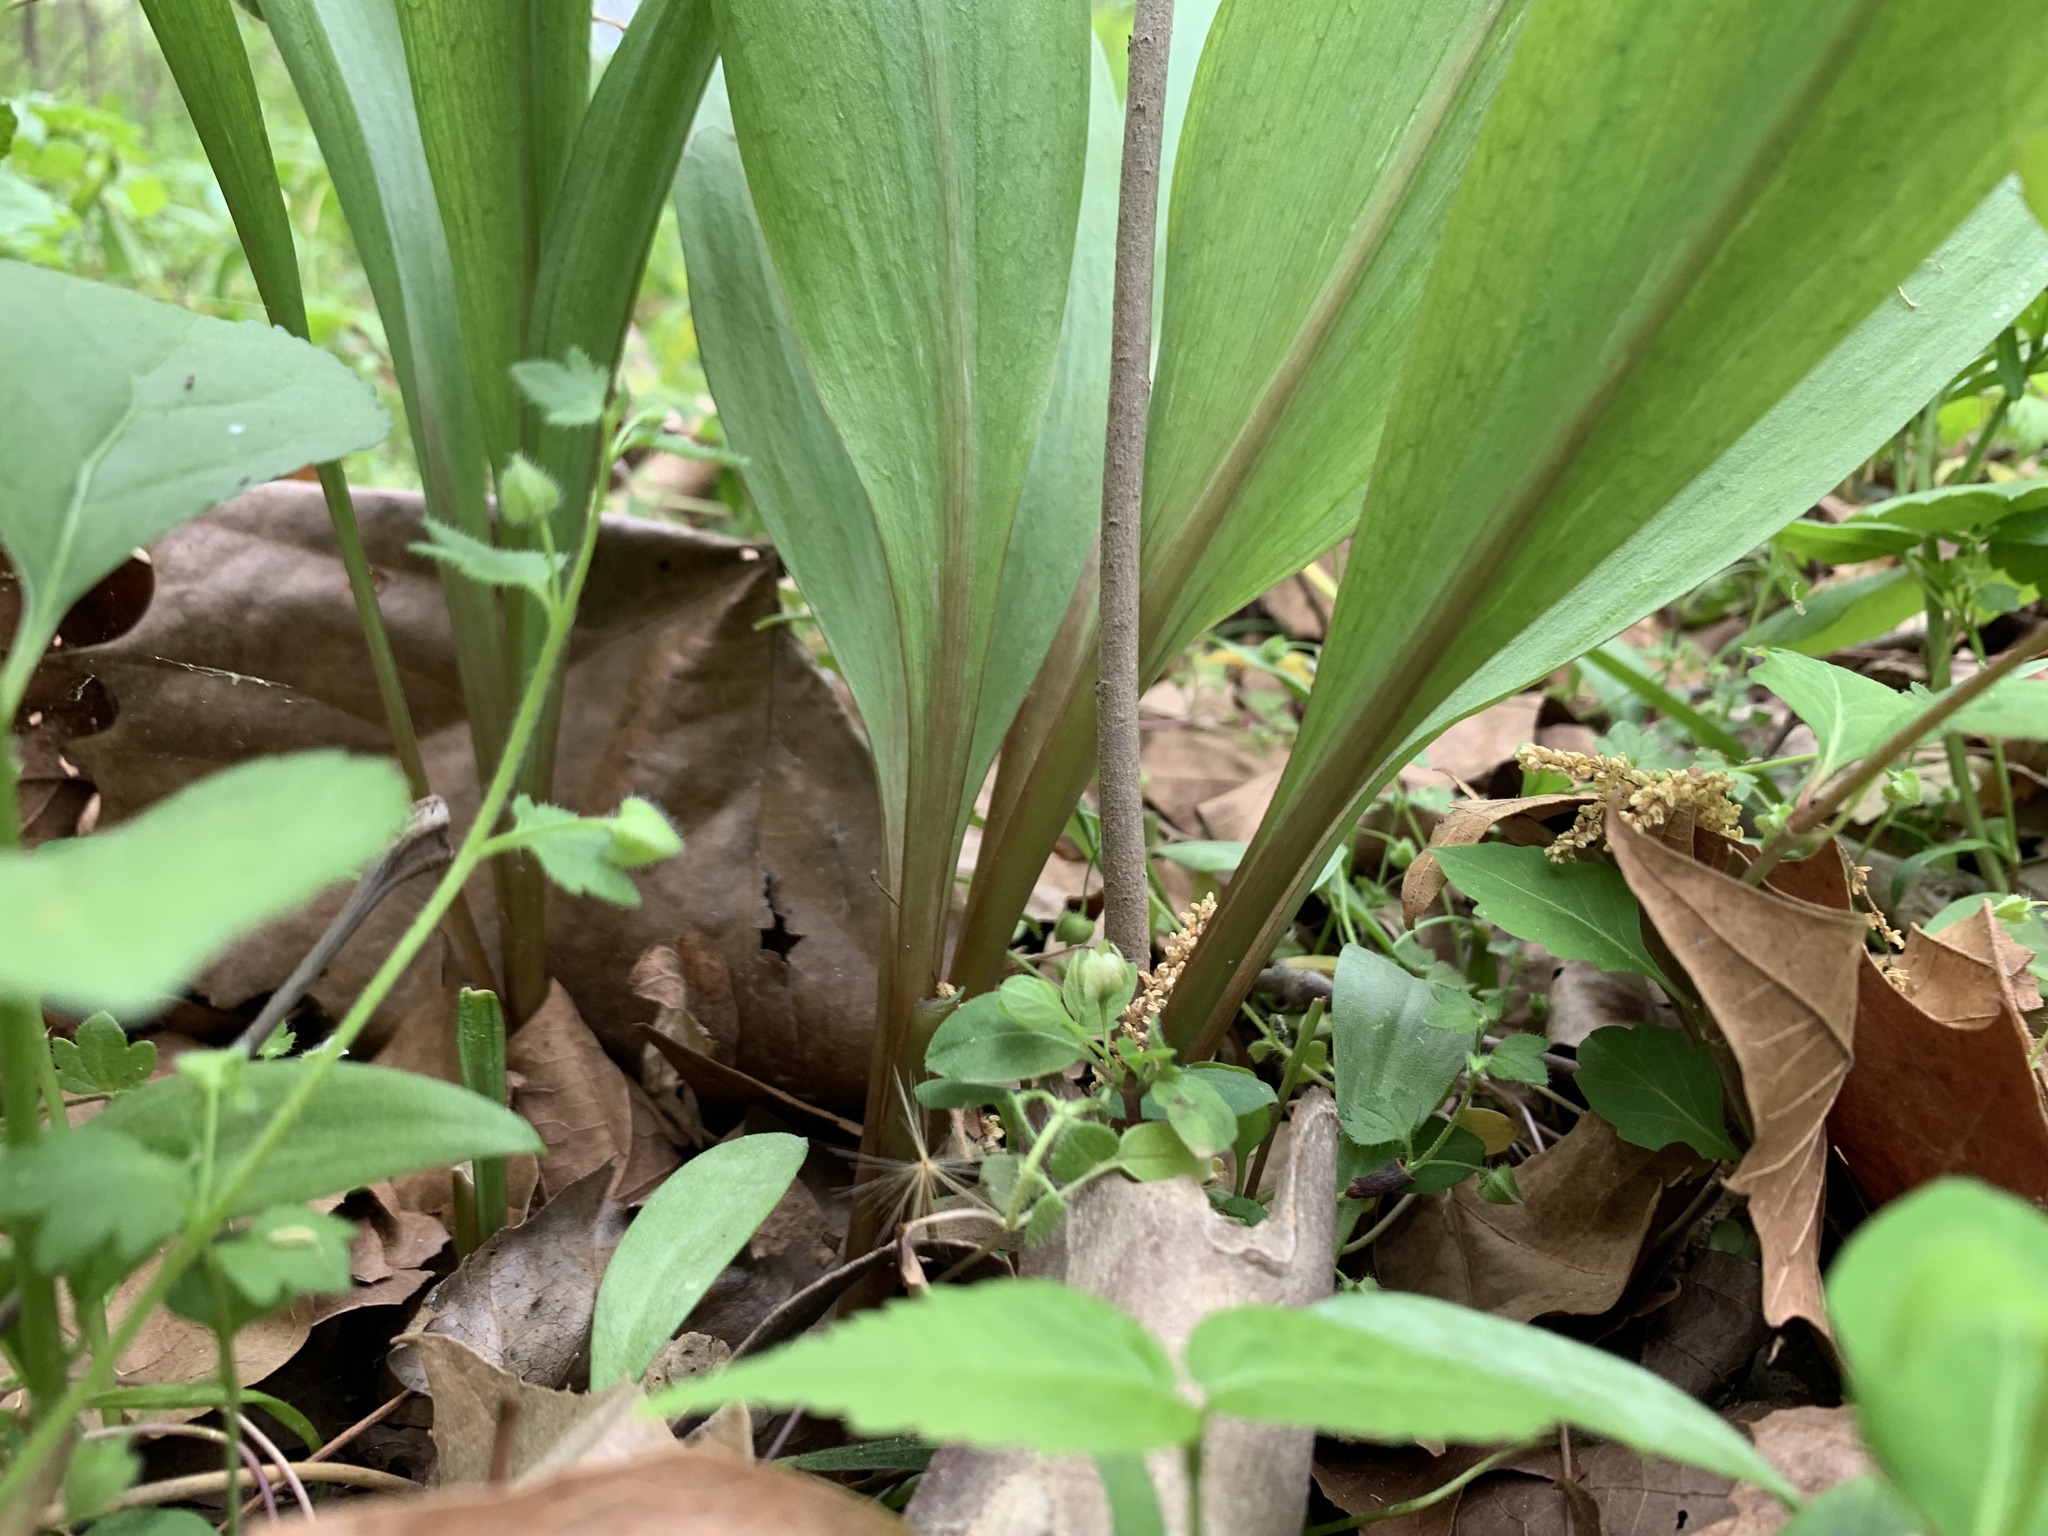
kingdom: Plantae
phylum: Tracheophyta
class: Liliopsida
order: Asparagales
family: Amaryllidaceae
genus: Allium
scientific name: Allium tricoccum
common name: Ramp
